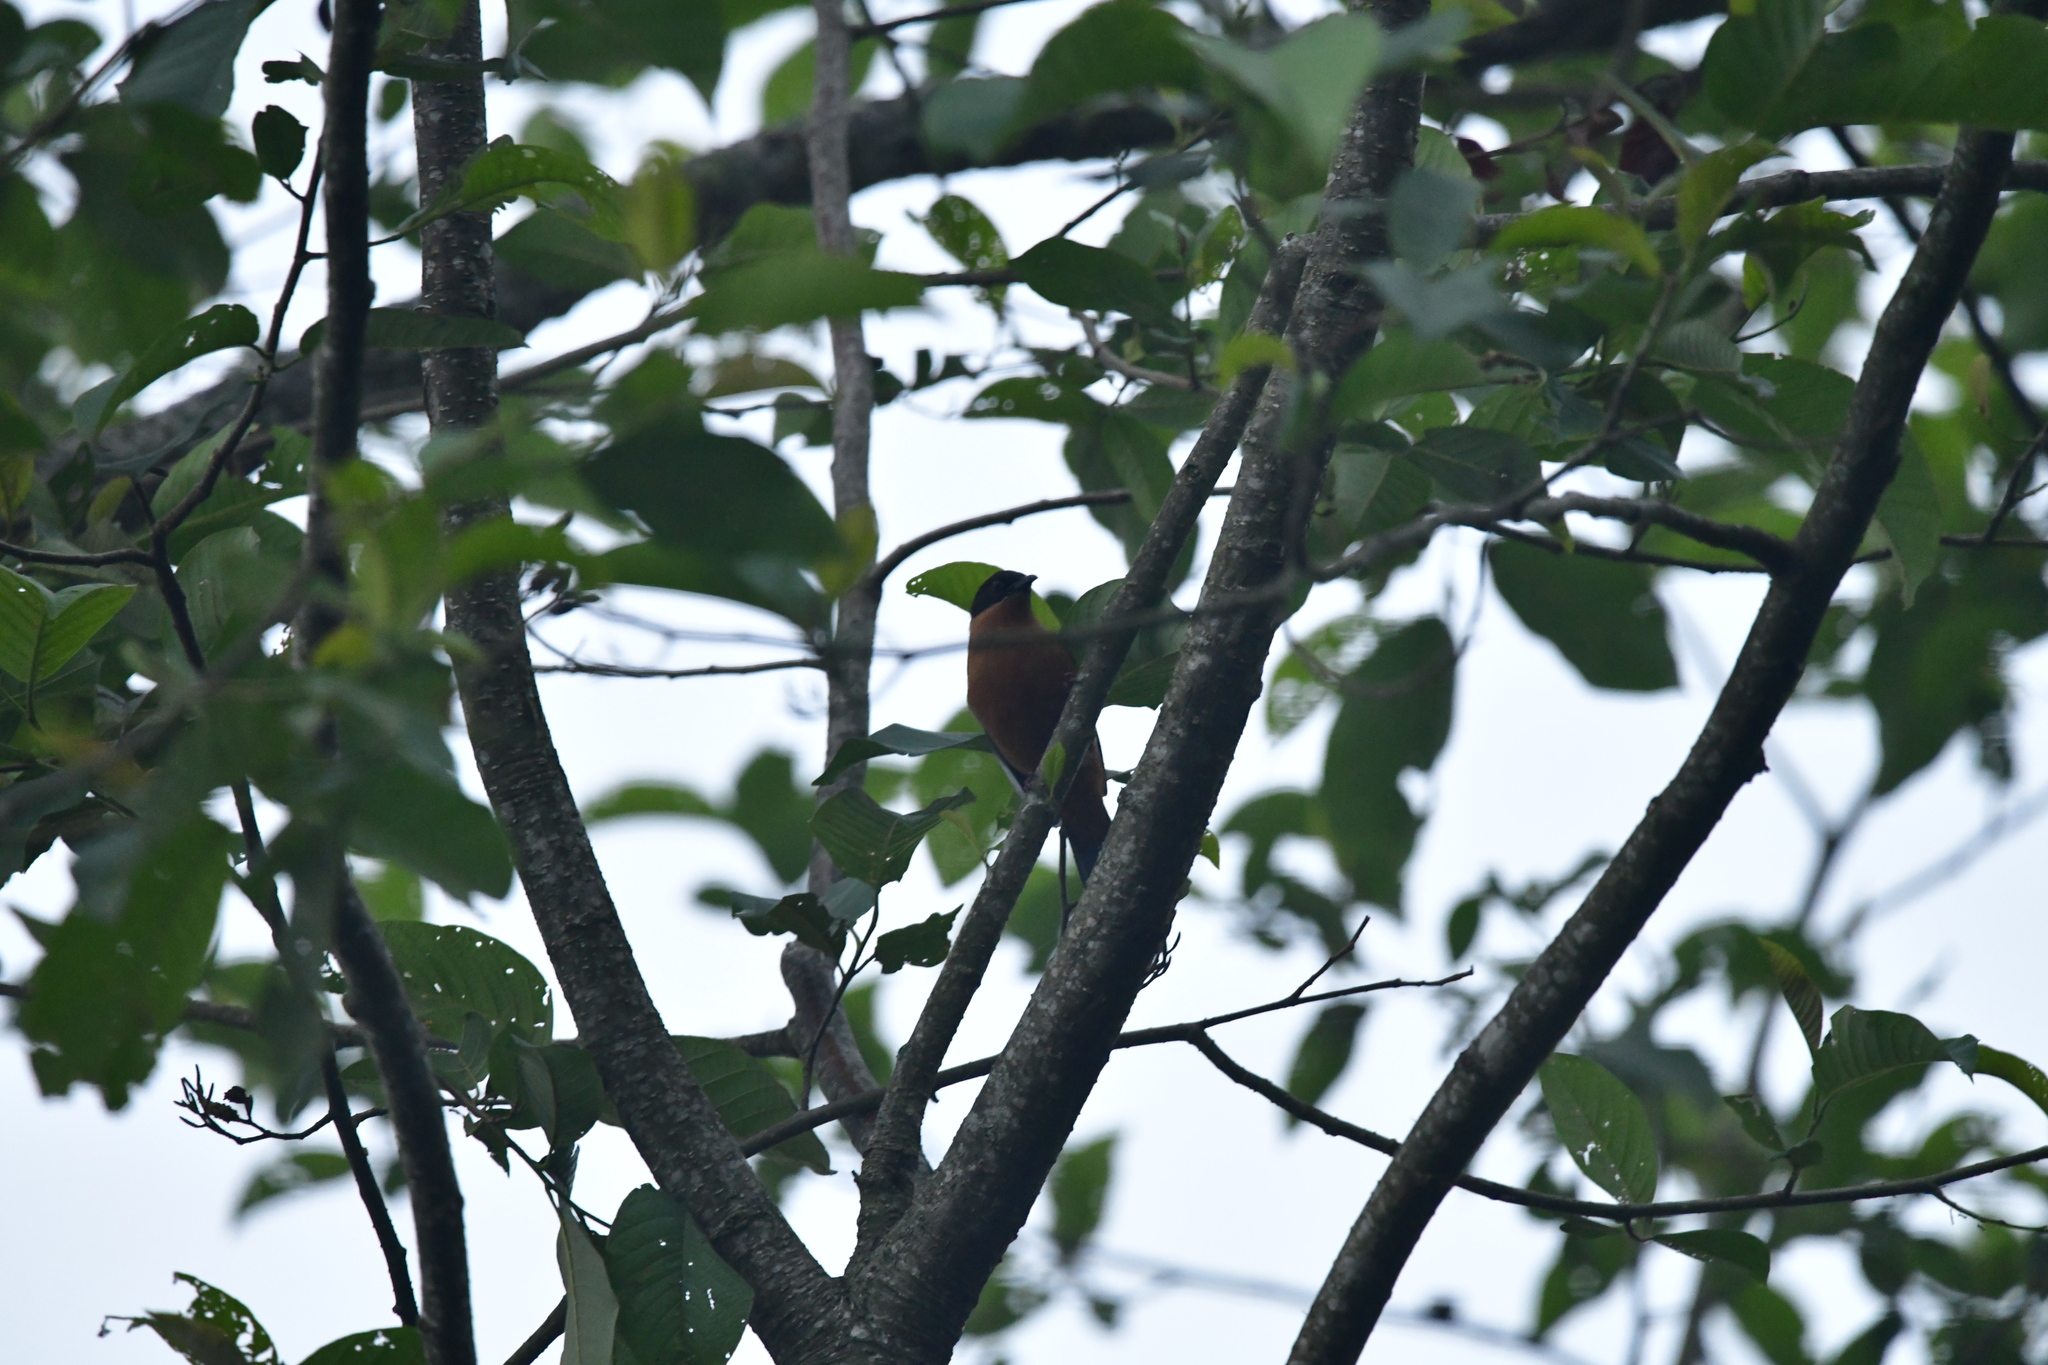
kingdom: Animalia
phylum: Chordata
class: Aves
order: Passeriformes
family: Leiothrichidae
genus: Heterophasia
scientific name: Heterophasia capistrata
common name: Rufous sibia
